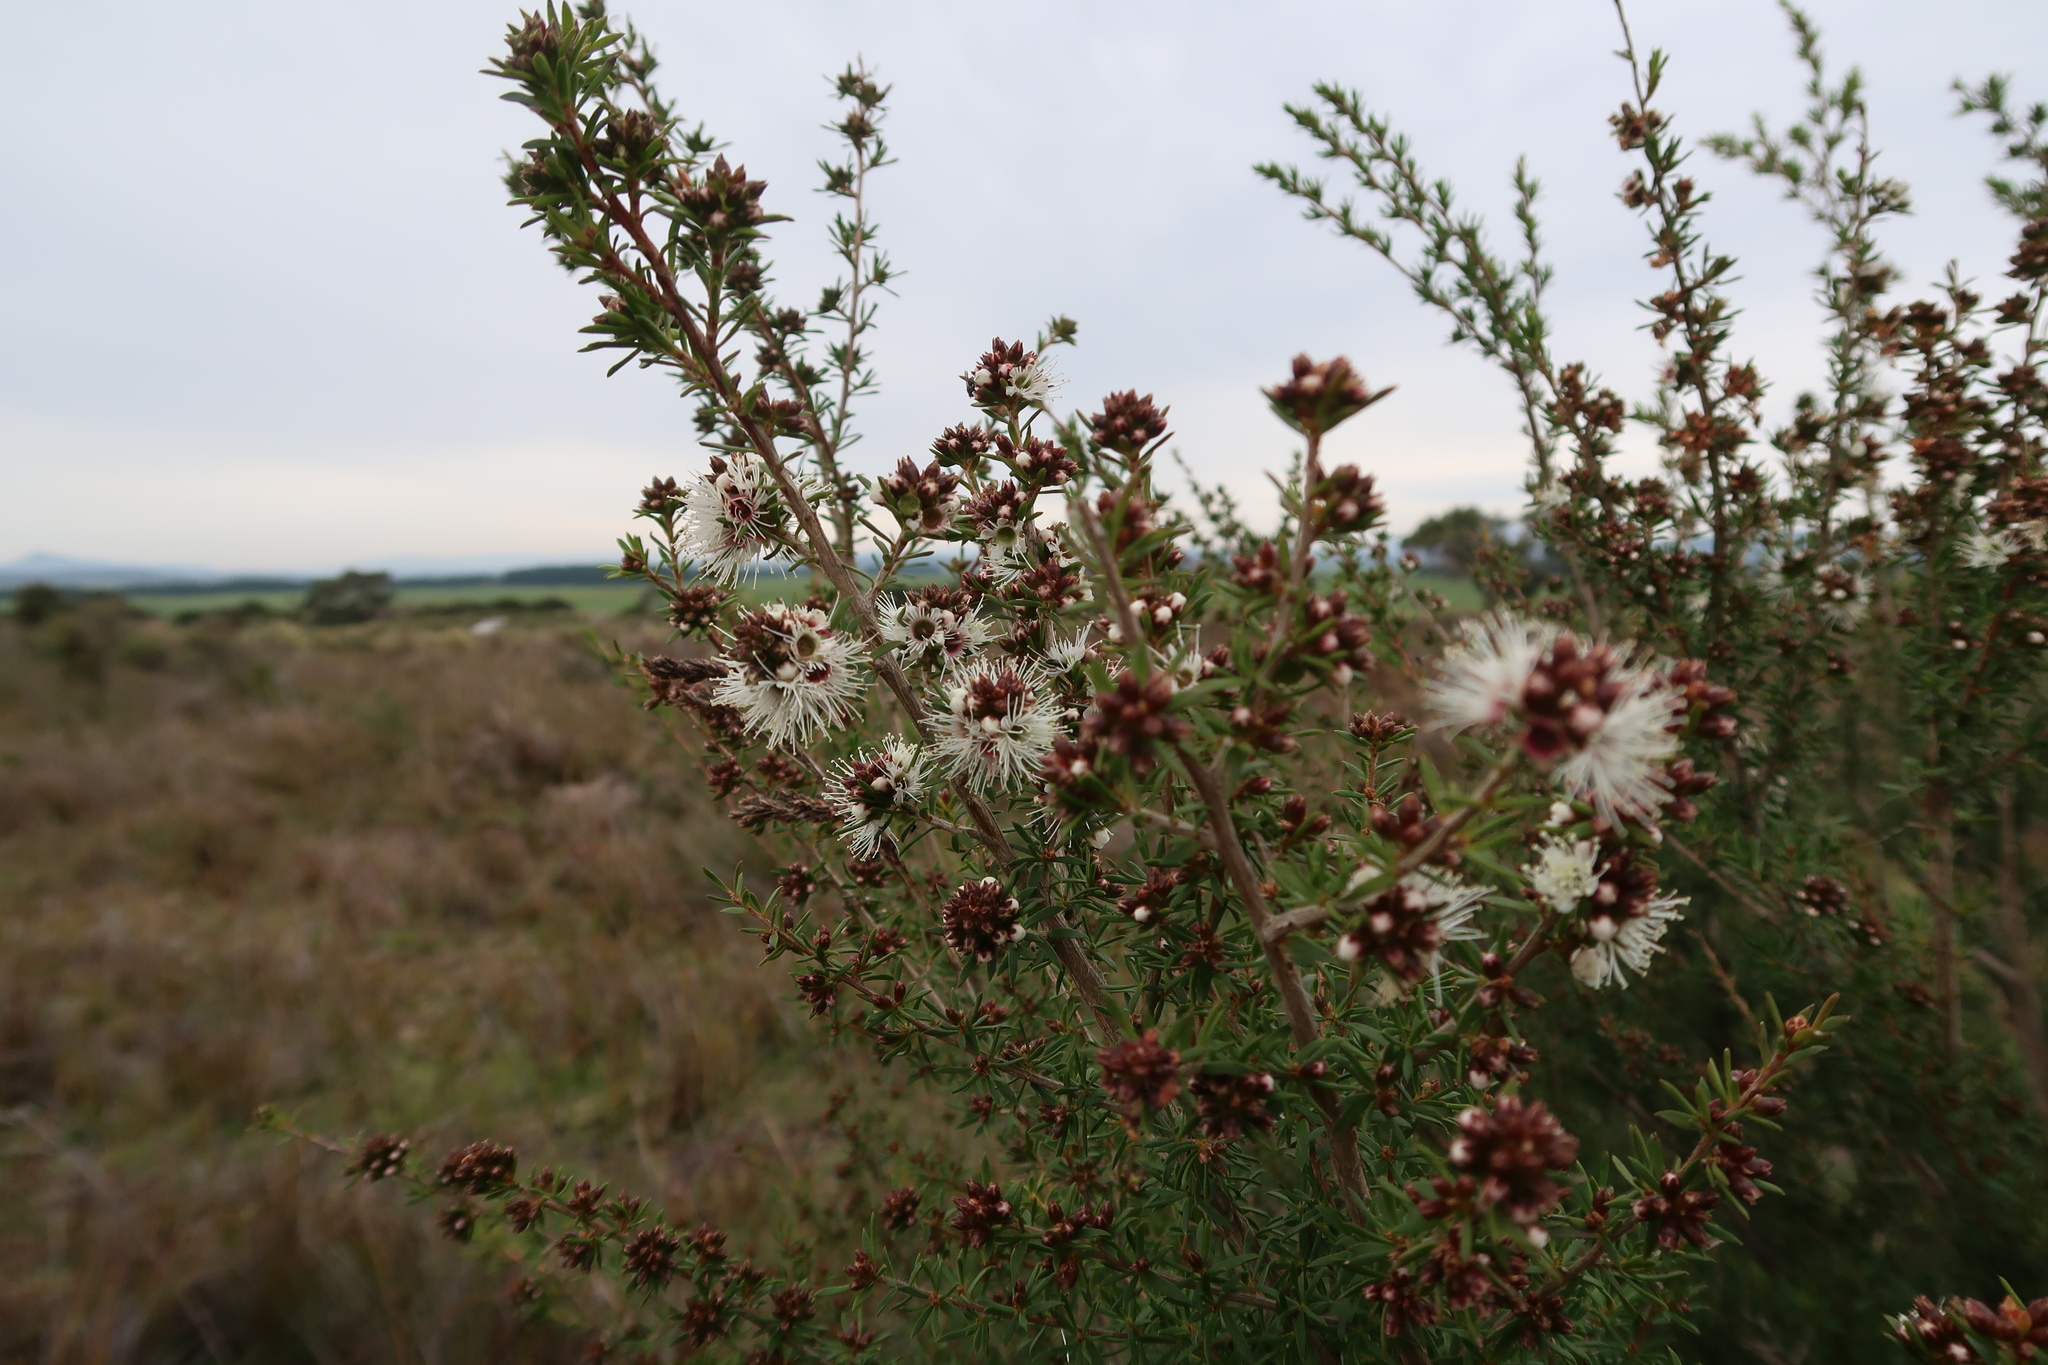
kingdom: Plantae
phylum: Tracheophyta
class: Magnoliopsida
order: Myrtales
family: Myrtaceae
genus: Kunzea
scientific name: Kunzea ambigua
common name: Tickbush
